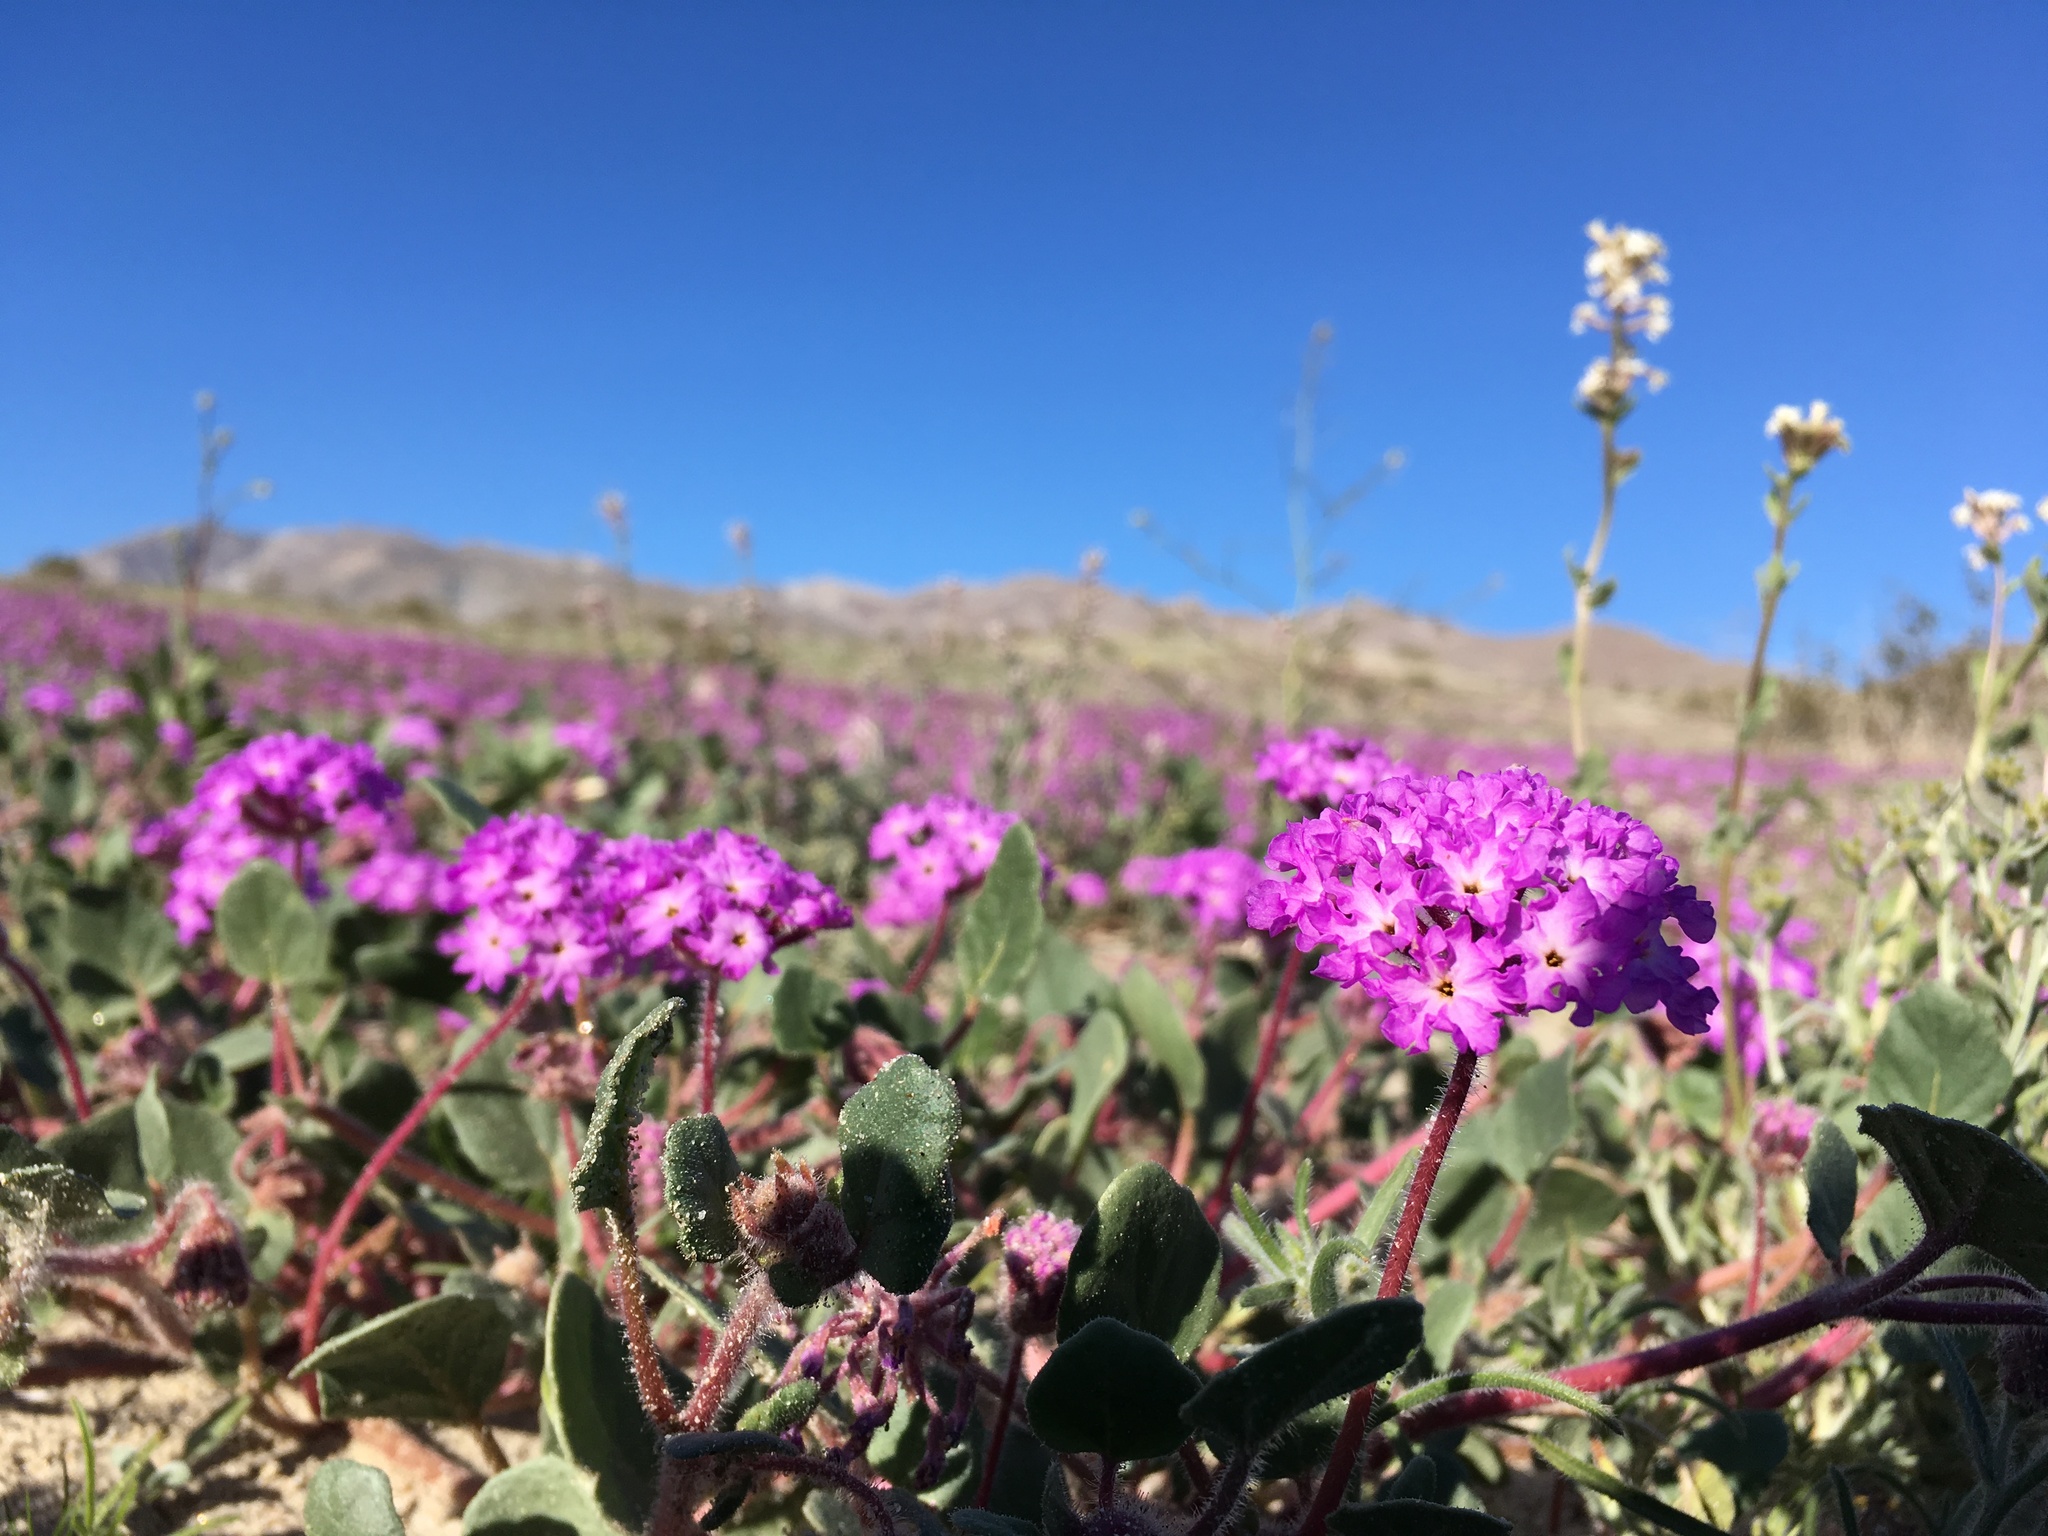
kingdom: Plantae
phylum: Tracheophyta
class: Magnoliopsida
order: Caryophyllales
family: Nyctaginaceae
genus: Abronia
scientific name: Abronia villosa
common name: Desert sand-verbena
